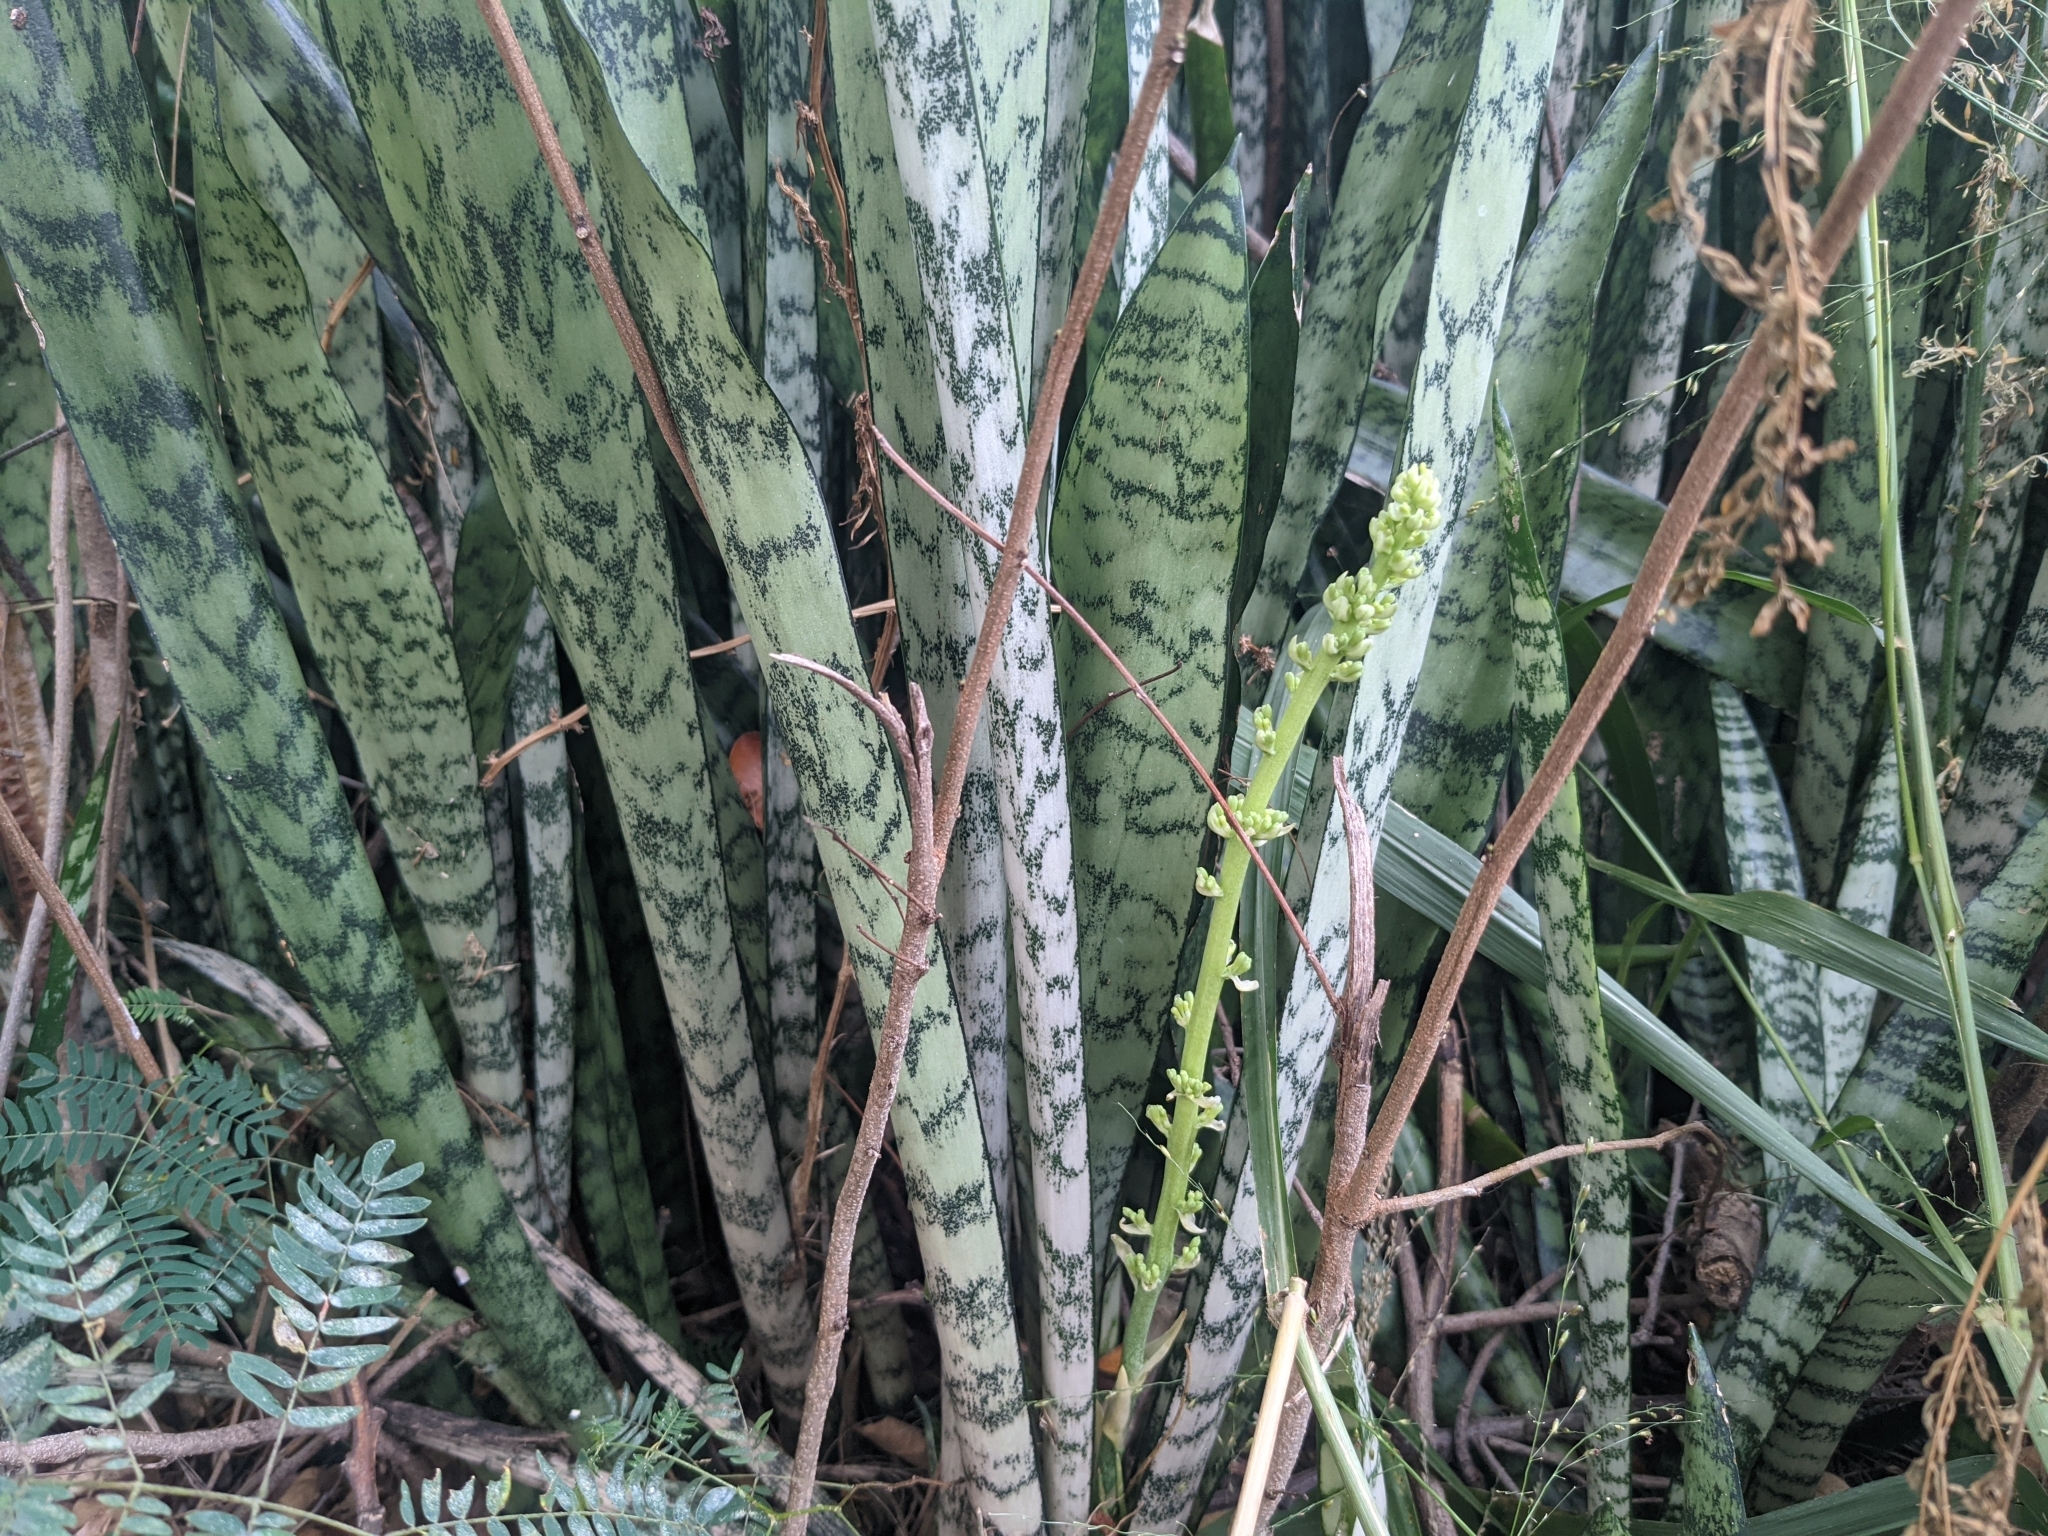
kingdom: Plantae
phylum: Tracheophyta
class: Liliopsida
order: Asparagales
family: Asparagaceae
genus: Dracaena
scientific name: Dracaena trifasciata
